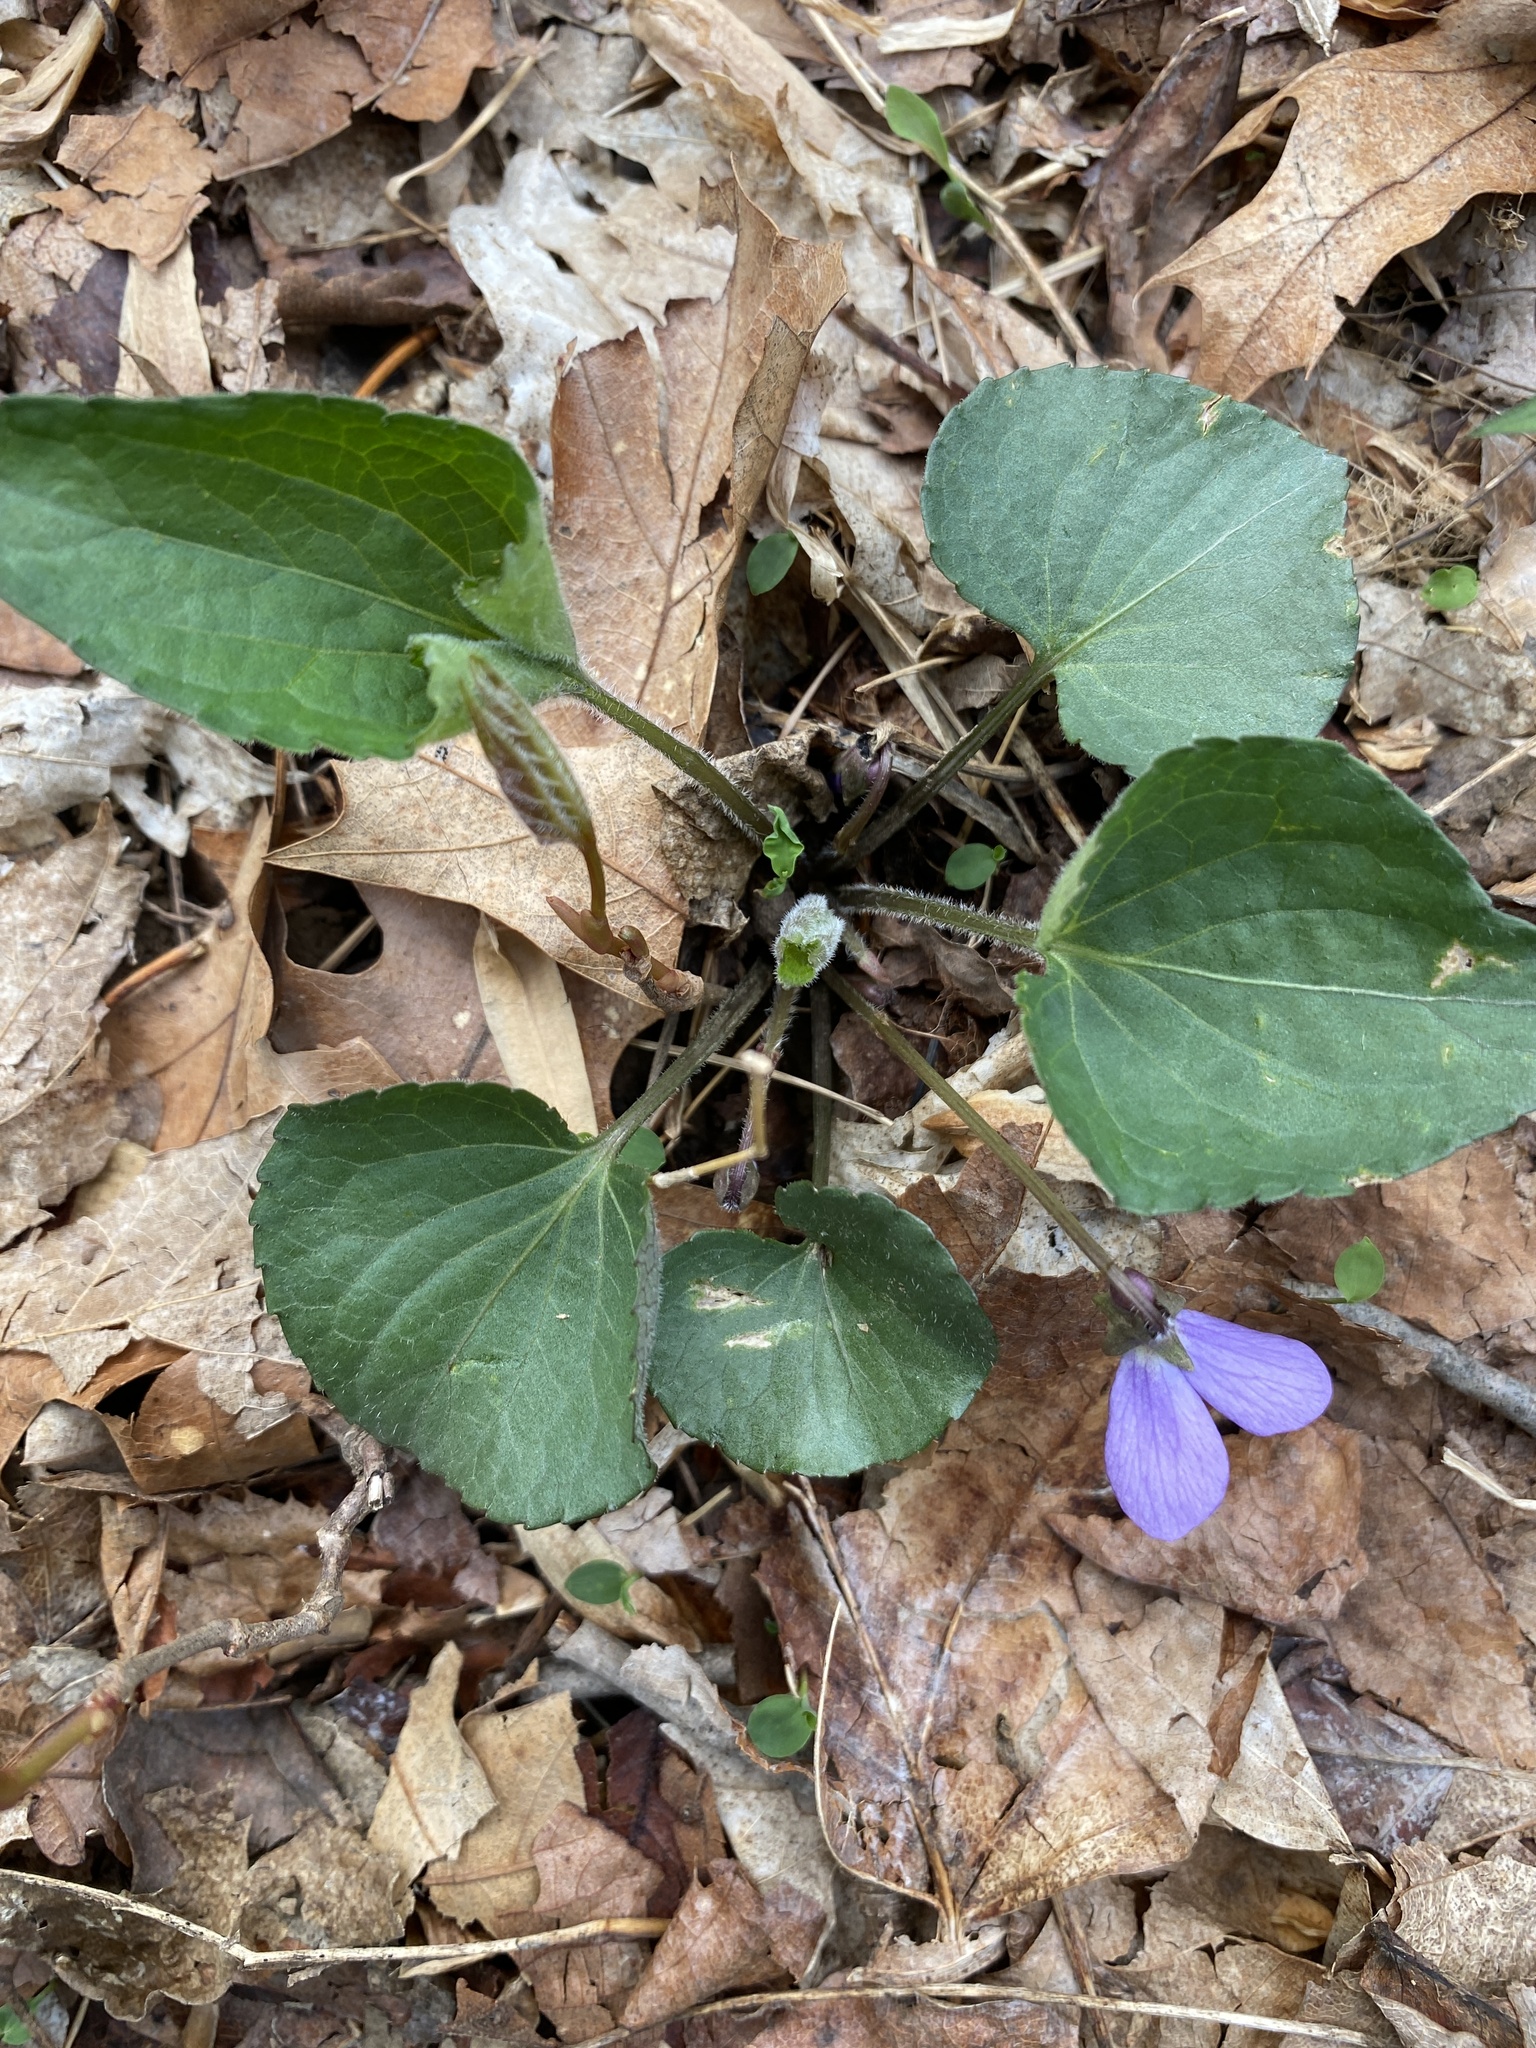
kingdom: Plantae
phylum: Tracheophyta
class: Magnoliopsida
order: Malpighiales
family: Violaceae
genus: Viola
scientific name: Viola populifolia
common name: Poplar-leaved violet
